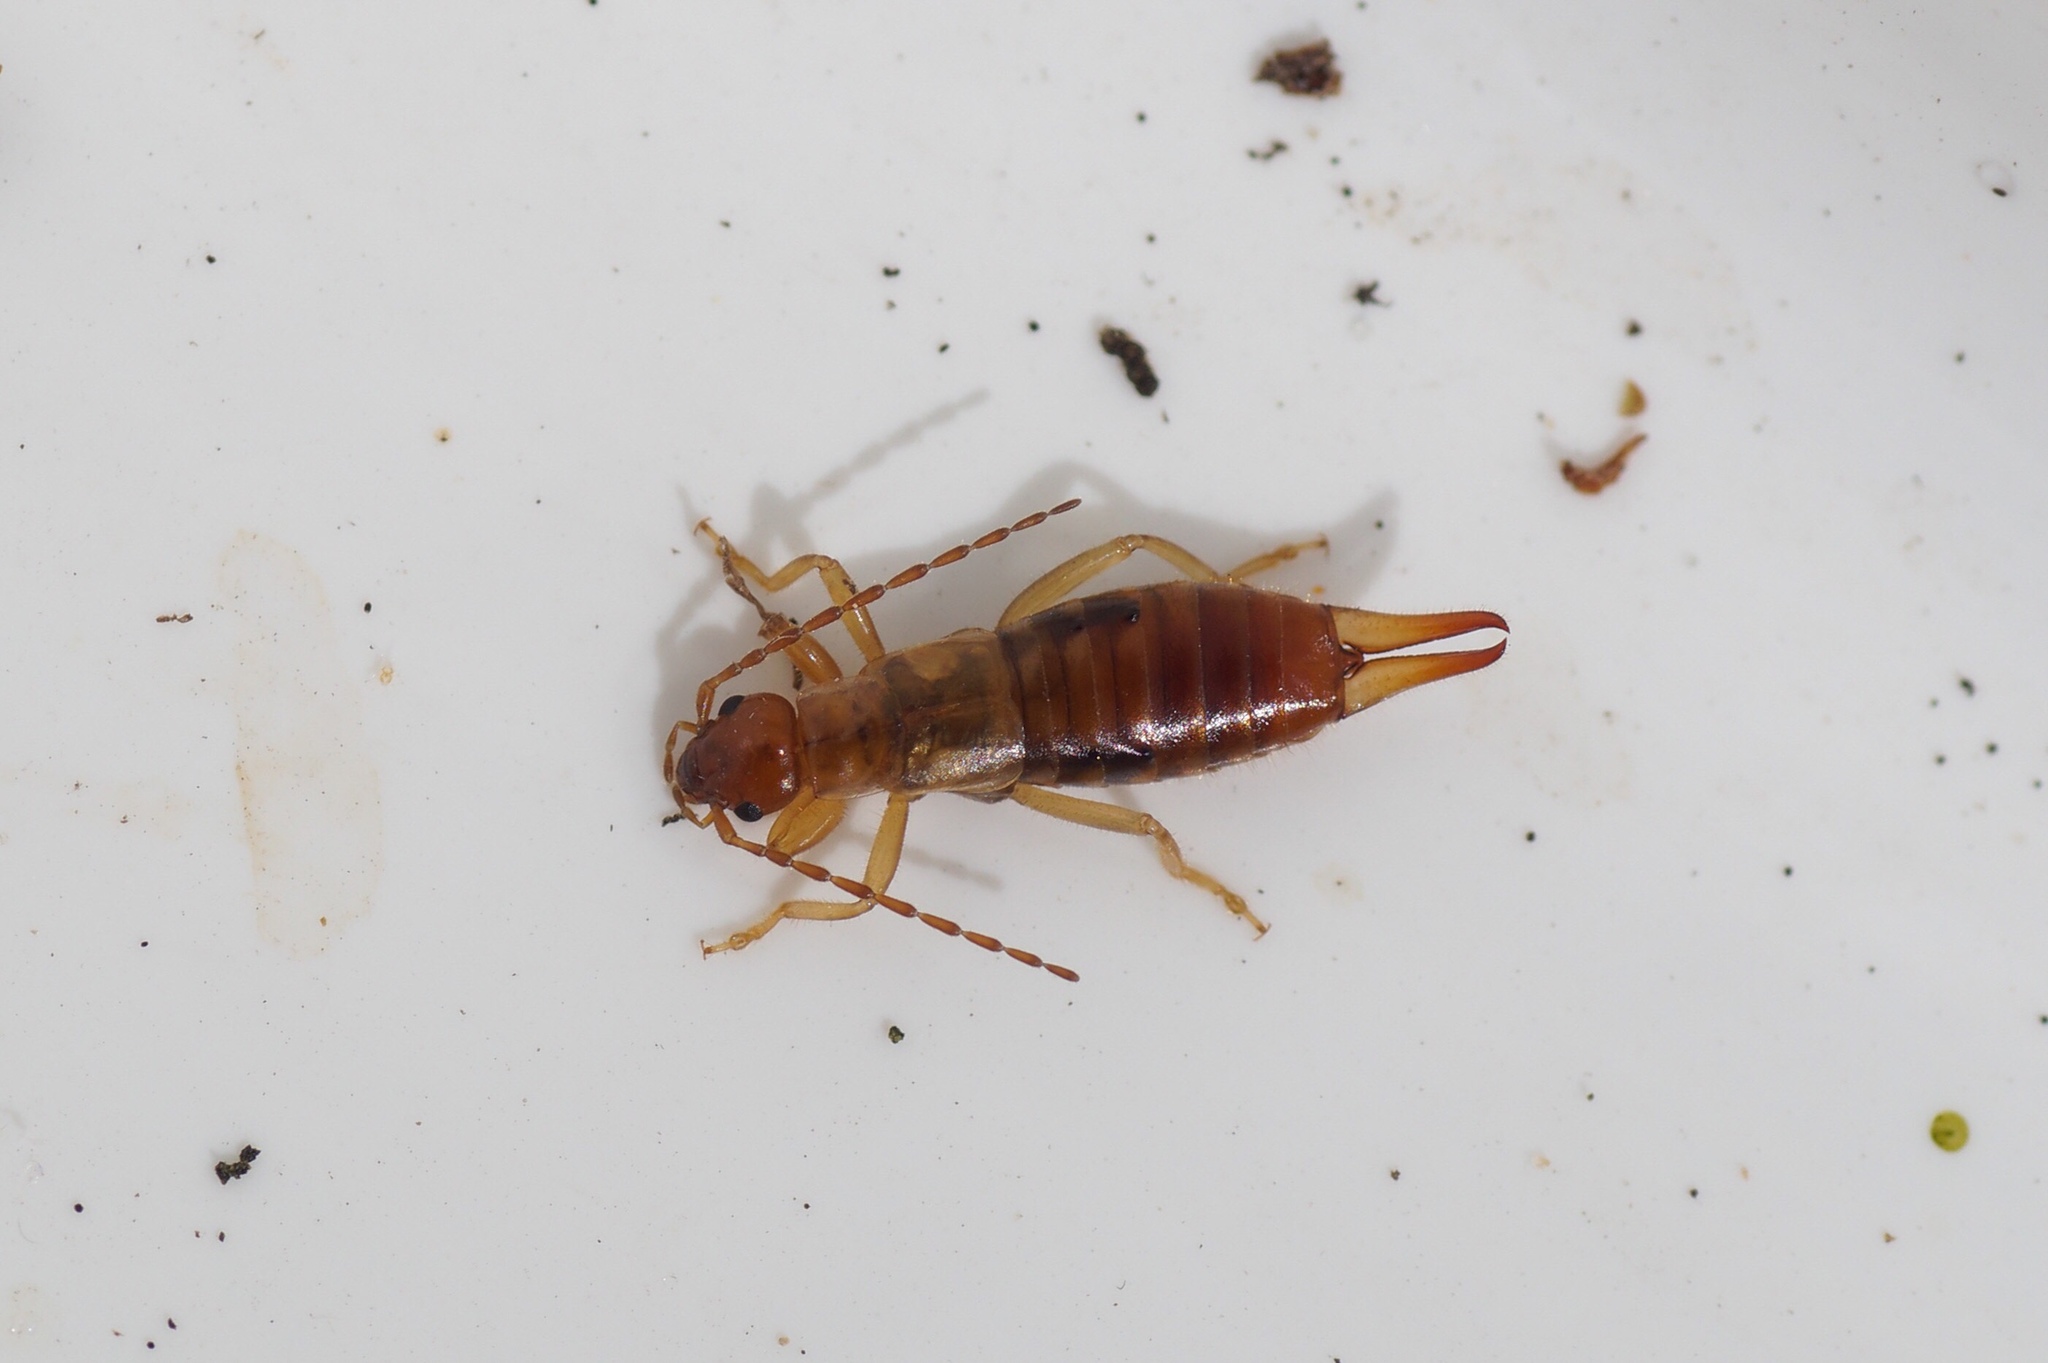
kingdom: Animalia
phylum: Arthropoda
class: Insecta
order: Dermaptera
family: Forficulidae
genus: Apterygida
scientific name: Apterygida albipennis
